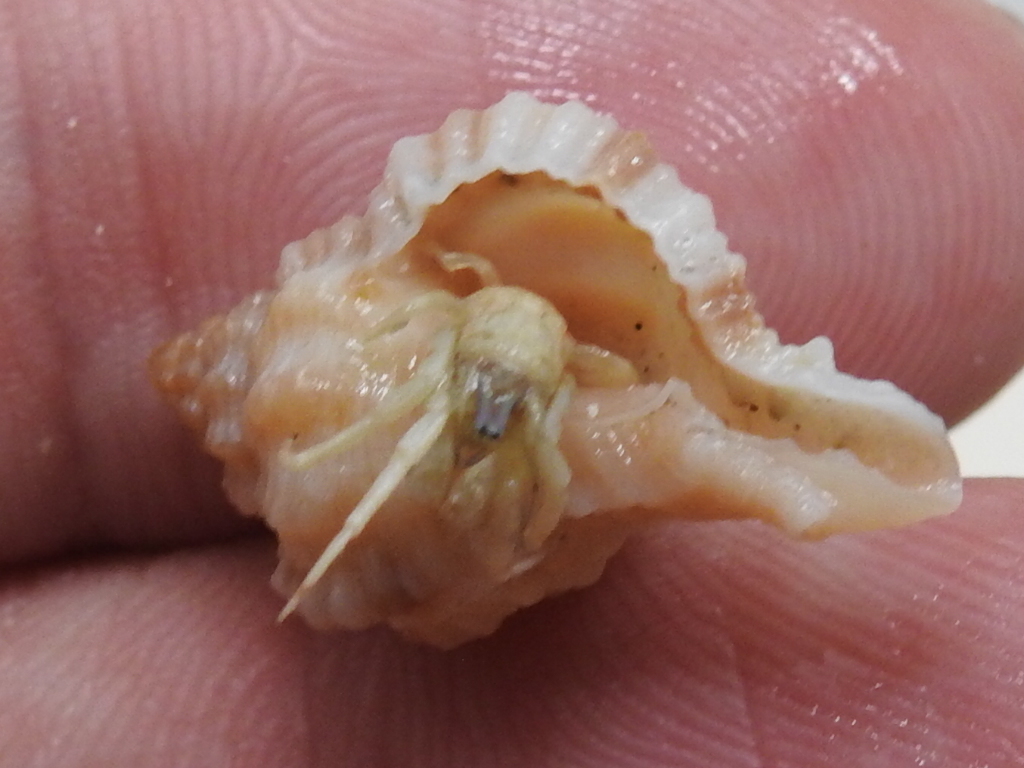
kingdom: Animalia
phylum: Arthropoda
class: Malacostraca
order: Decapoda
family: Diogenidae
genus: Isocheles
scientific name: Isocheles wurdemanni
